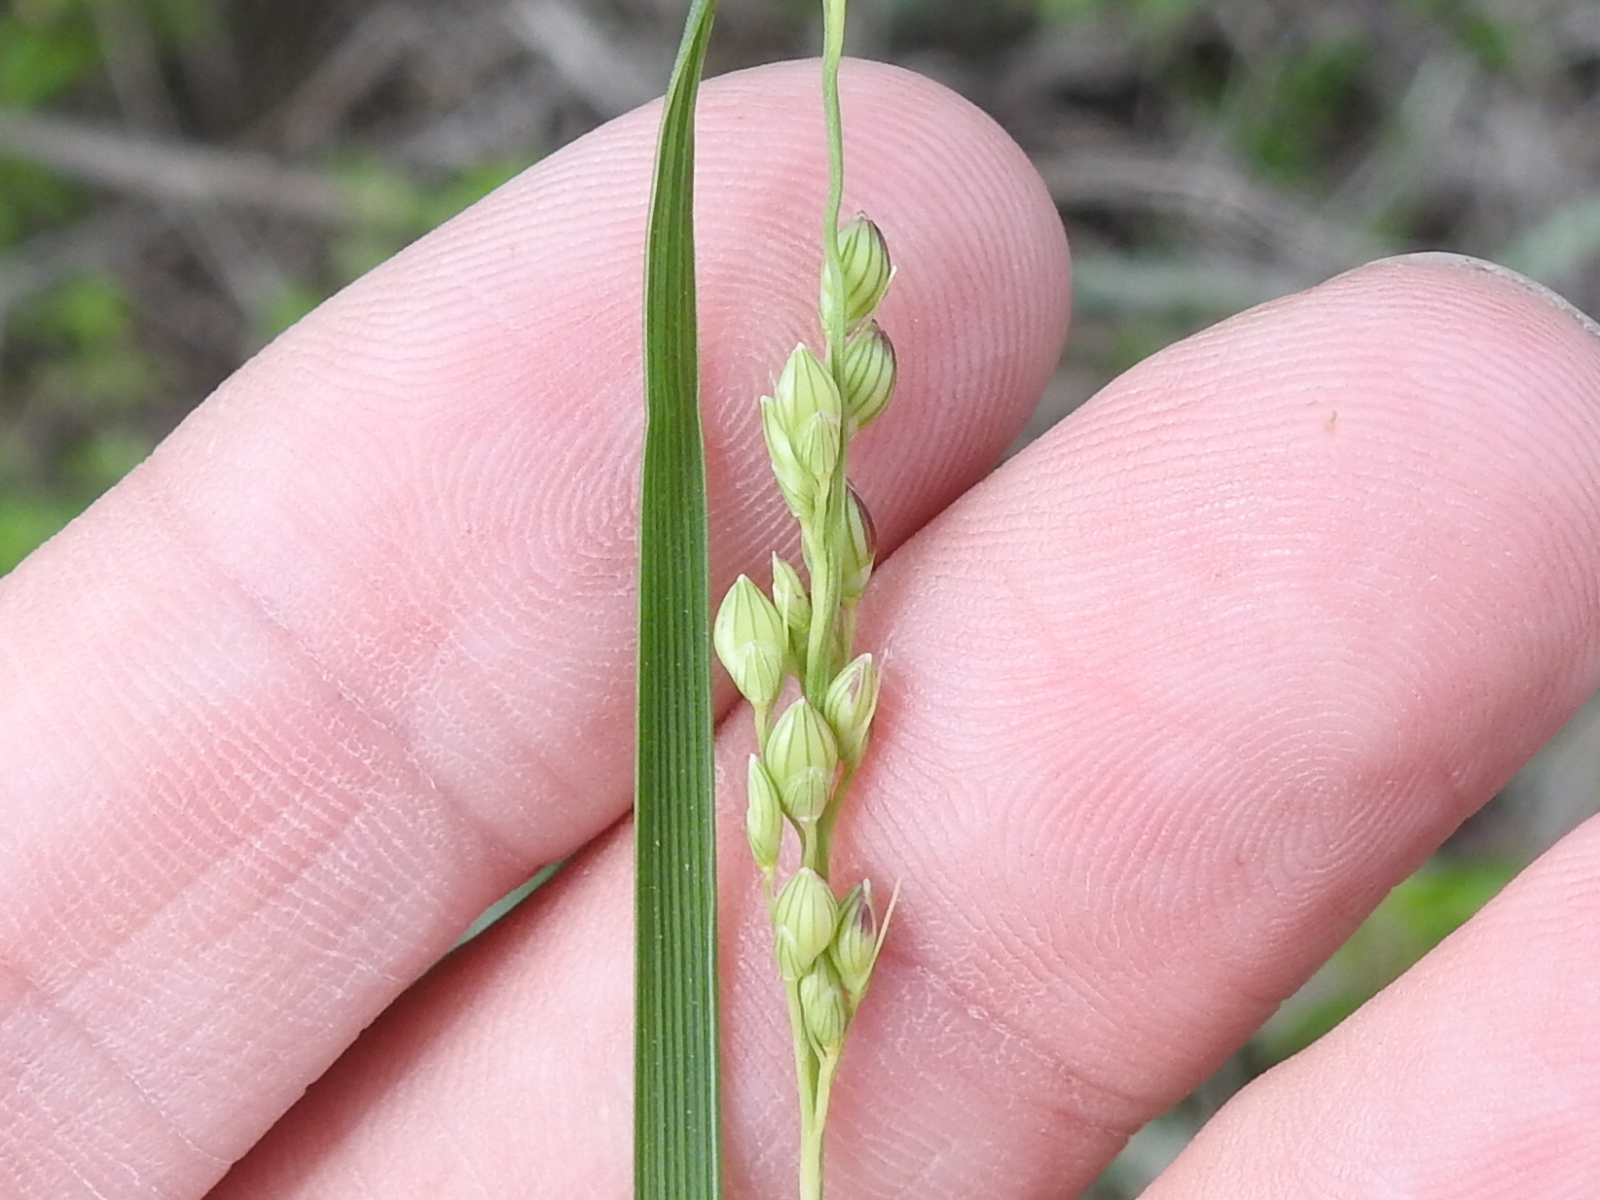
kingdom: Plantae
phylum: Tracheophyta
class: Liliopsida
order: Poales
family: Poaceae
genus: Setaria
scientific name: Setaria reverchonii
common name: Reverchon's bristle grass
